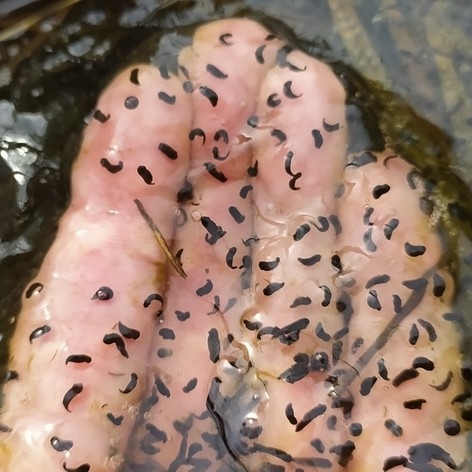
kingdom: Animalia
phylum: Chordata
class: Amphibia
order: Anura
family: Ranidae
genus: Rana
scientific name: Rana temporaria
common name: Common frog
